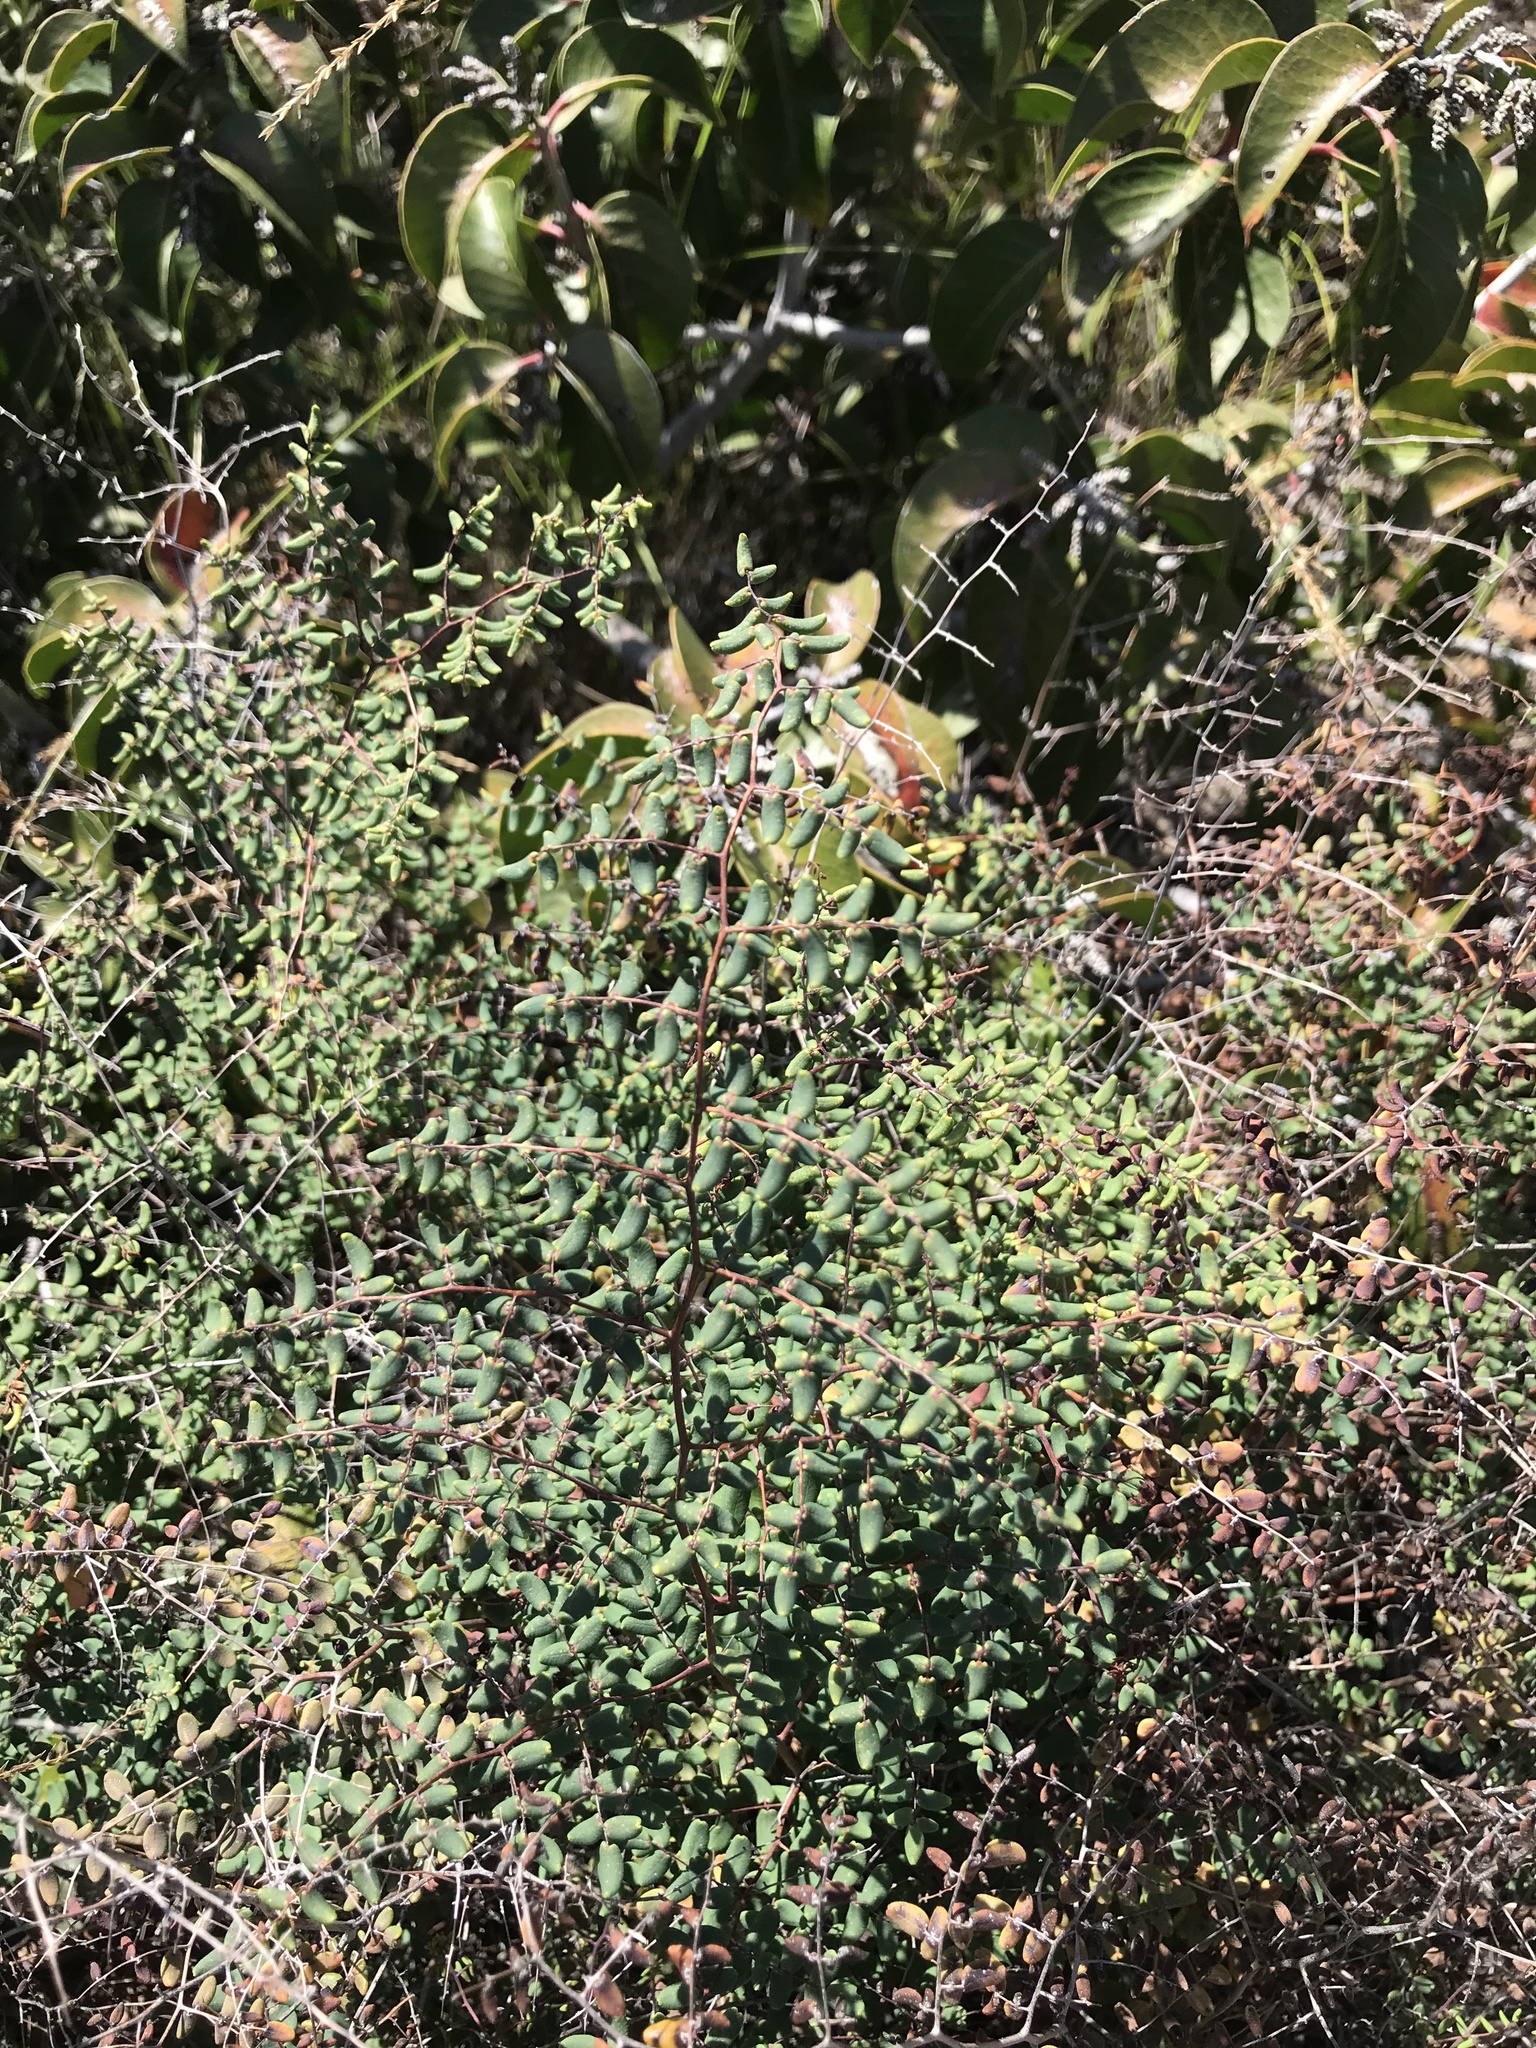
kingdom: Plantae
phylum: Tracheophyta
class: Polypodiopsida
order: Polypodiales
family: Pteridaceae
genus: Pellaea
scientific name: Pellaea andromedifolia
